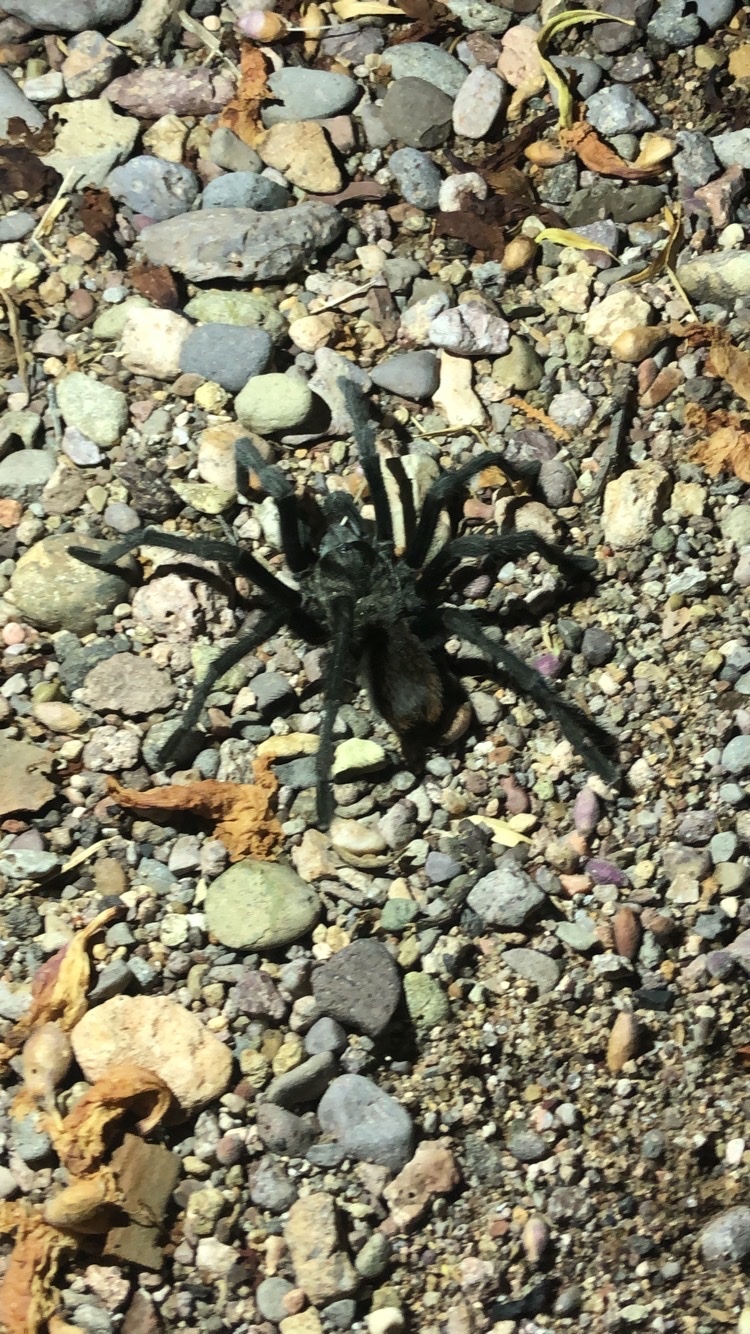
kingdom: Animalia
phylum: Arthropoda
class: Arachnida
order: Araneae
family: Theraphosidae
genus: Aphonopelma
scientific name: Aphonopelma gabeli
